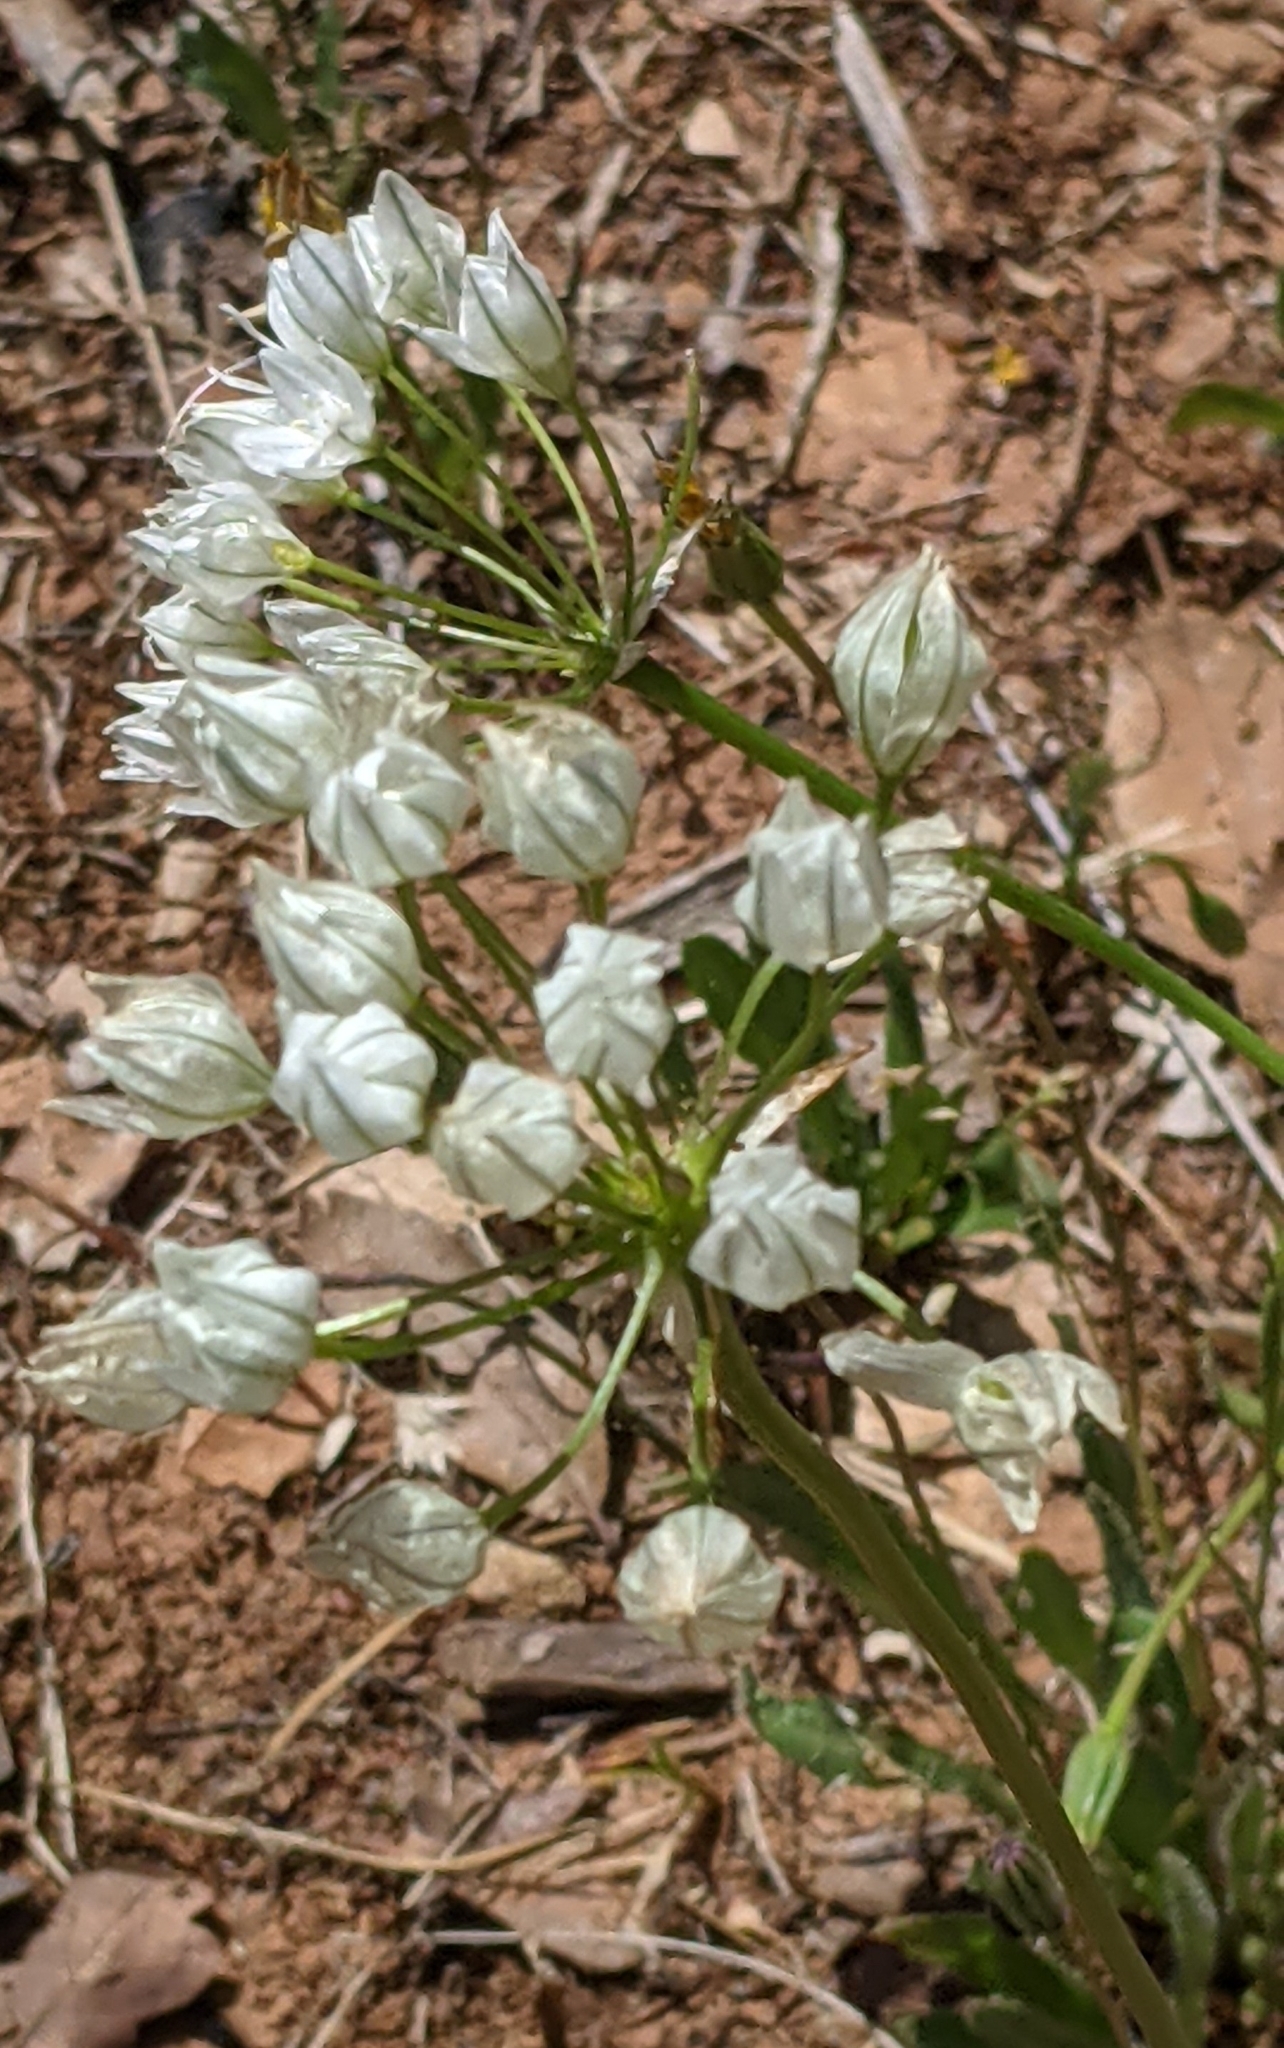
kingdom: Plantae
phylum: Tracheophyta
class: Liliopsida
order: Asparagales
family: Asparagaceae
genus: Triteleia
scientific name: Triteleia hyacinthina
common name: White brodiaea
